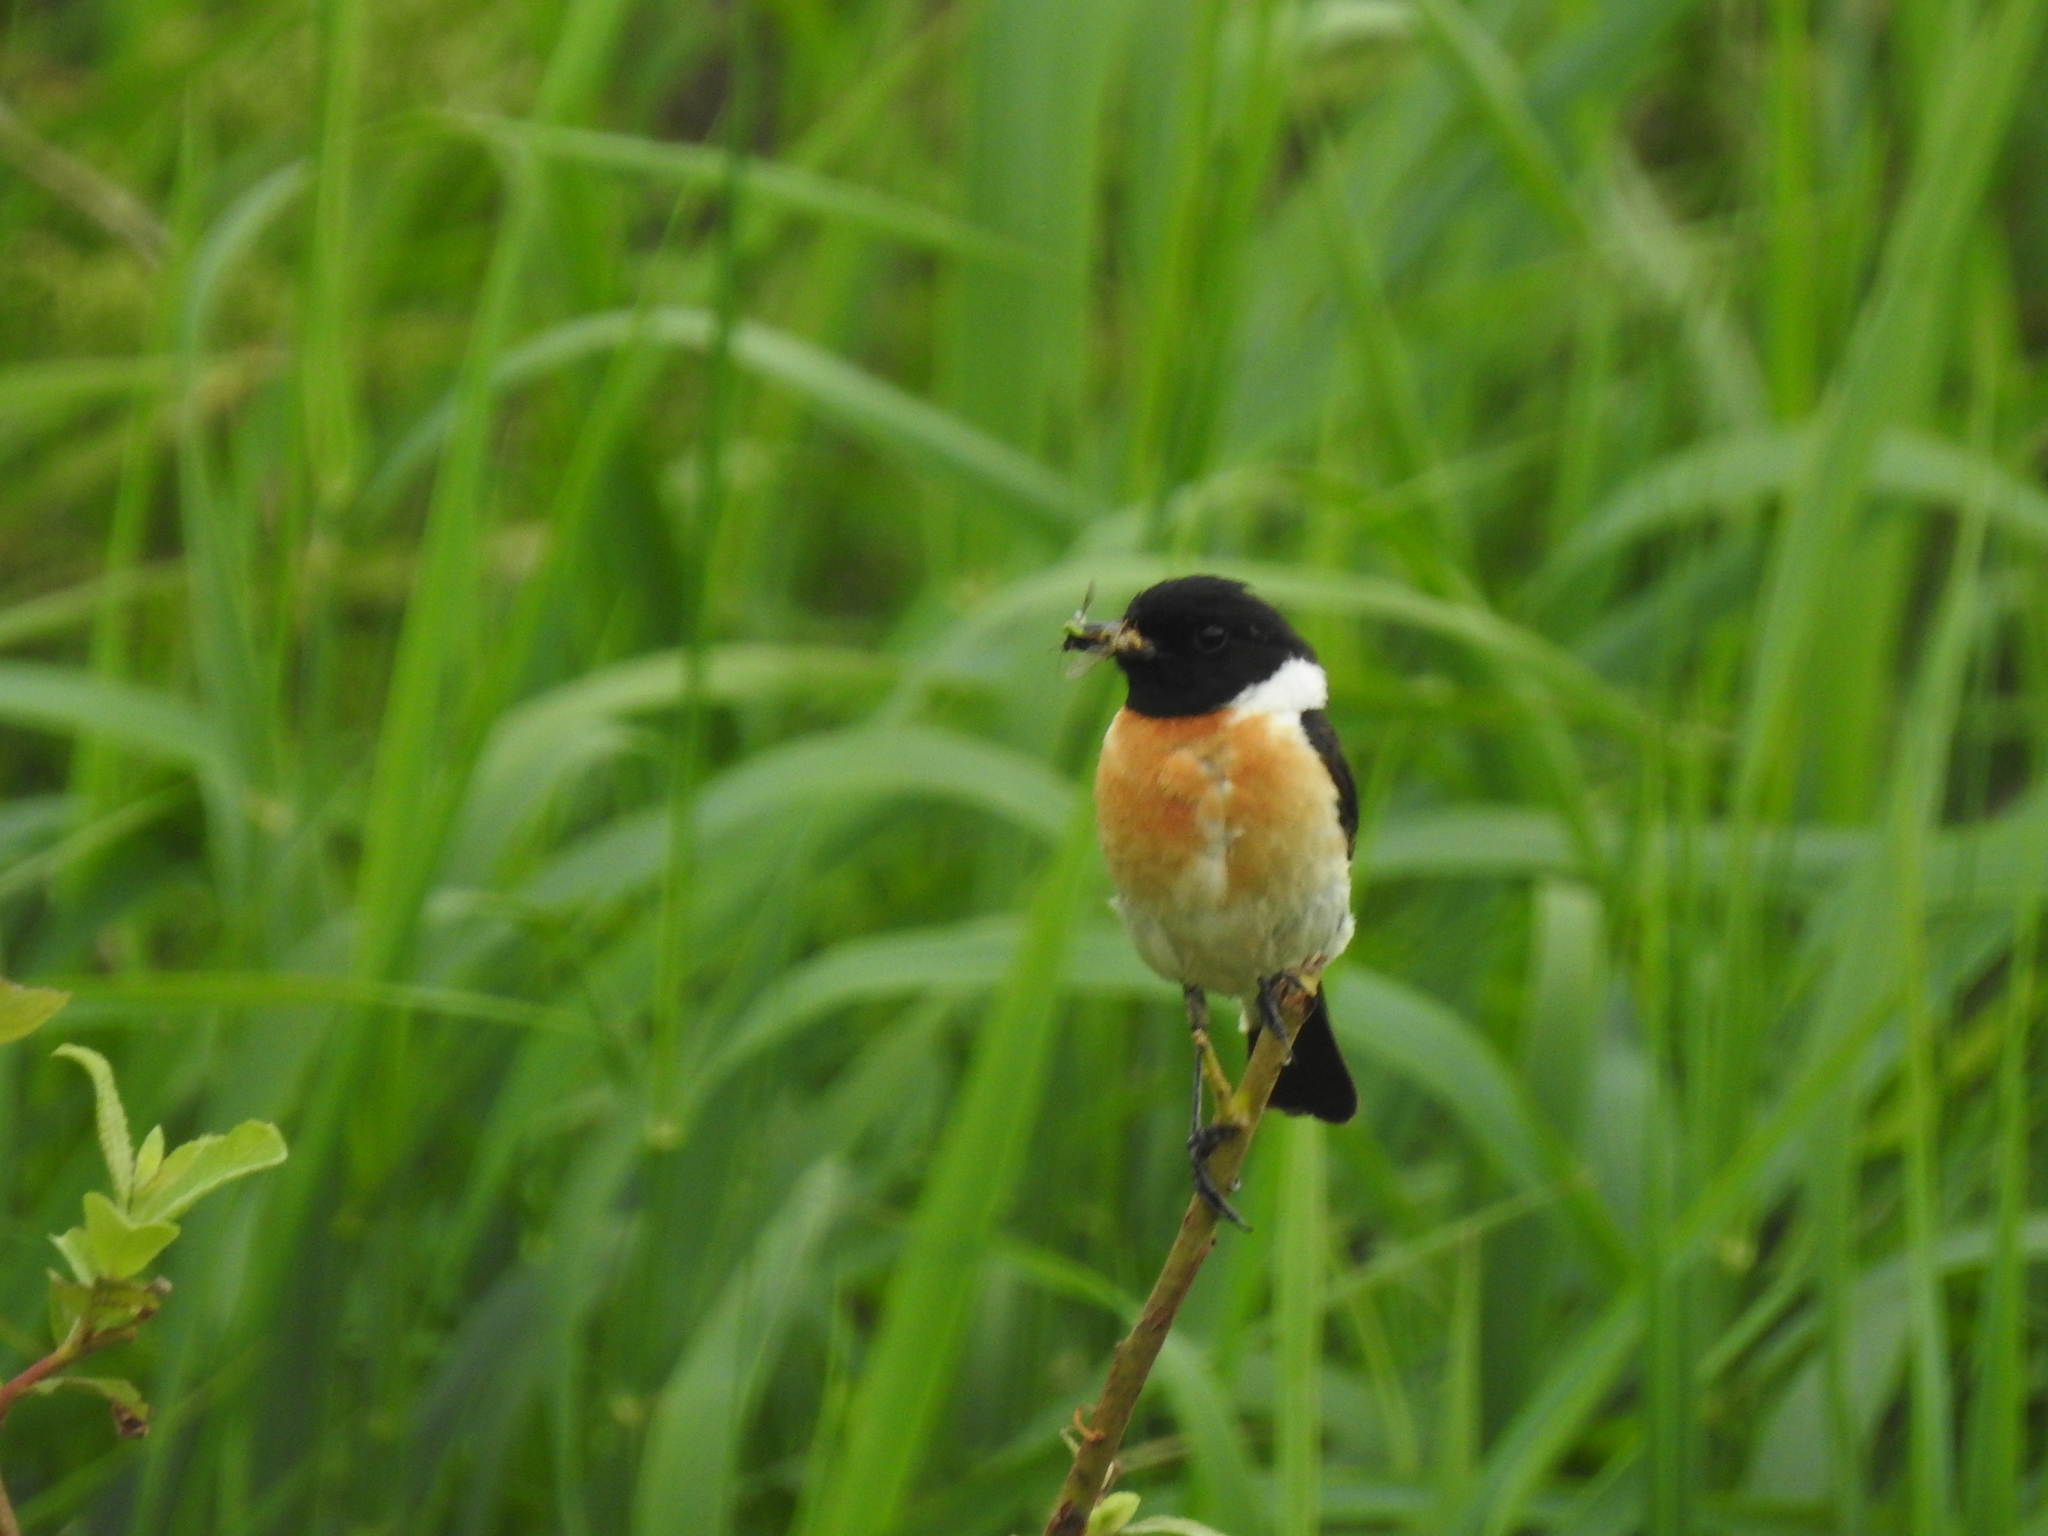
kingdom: Animalia
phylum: Chordata
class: Aves
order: Passeriformes
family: Muscicapidae
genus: Saxicola
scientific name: Saxicola maurus
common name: Siberian stonechat
